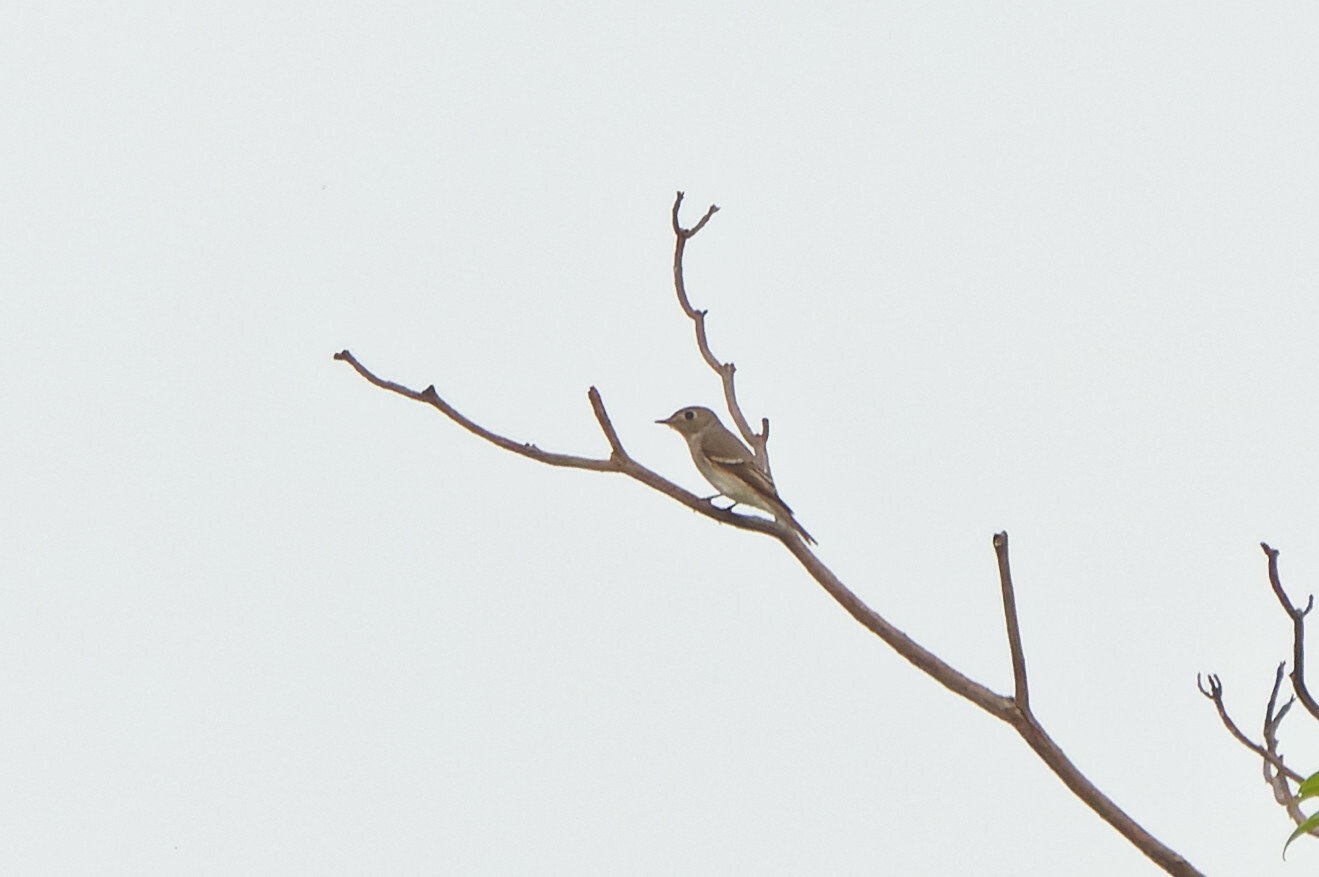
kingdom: Animalia
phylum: Chordata
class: Aves
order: Passeriformes
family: Muscicapidae
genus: Muscicapa
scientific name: Muscicapa latirostris
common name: Asian brown flycatcher
